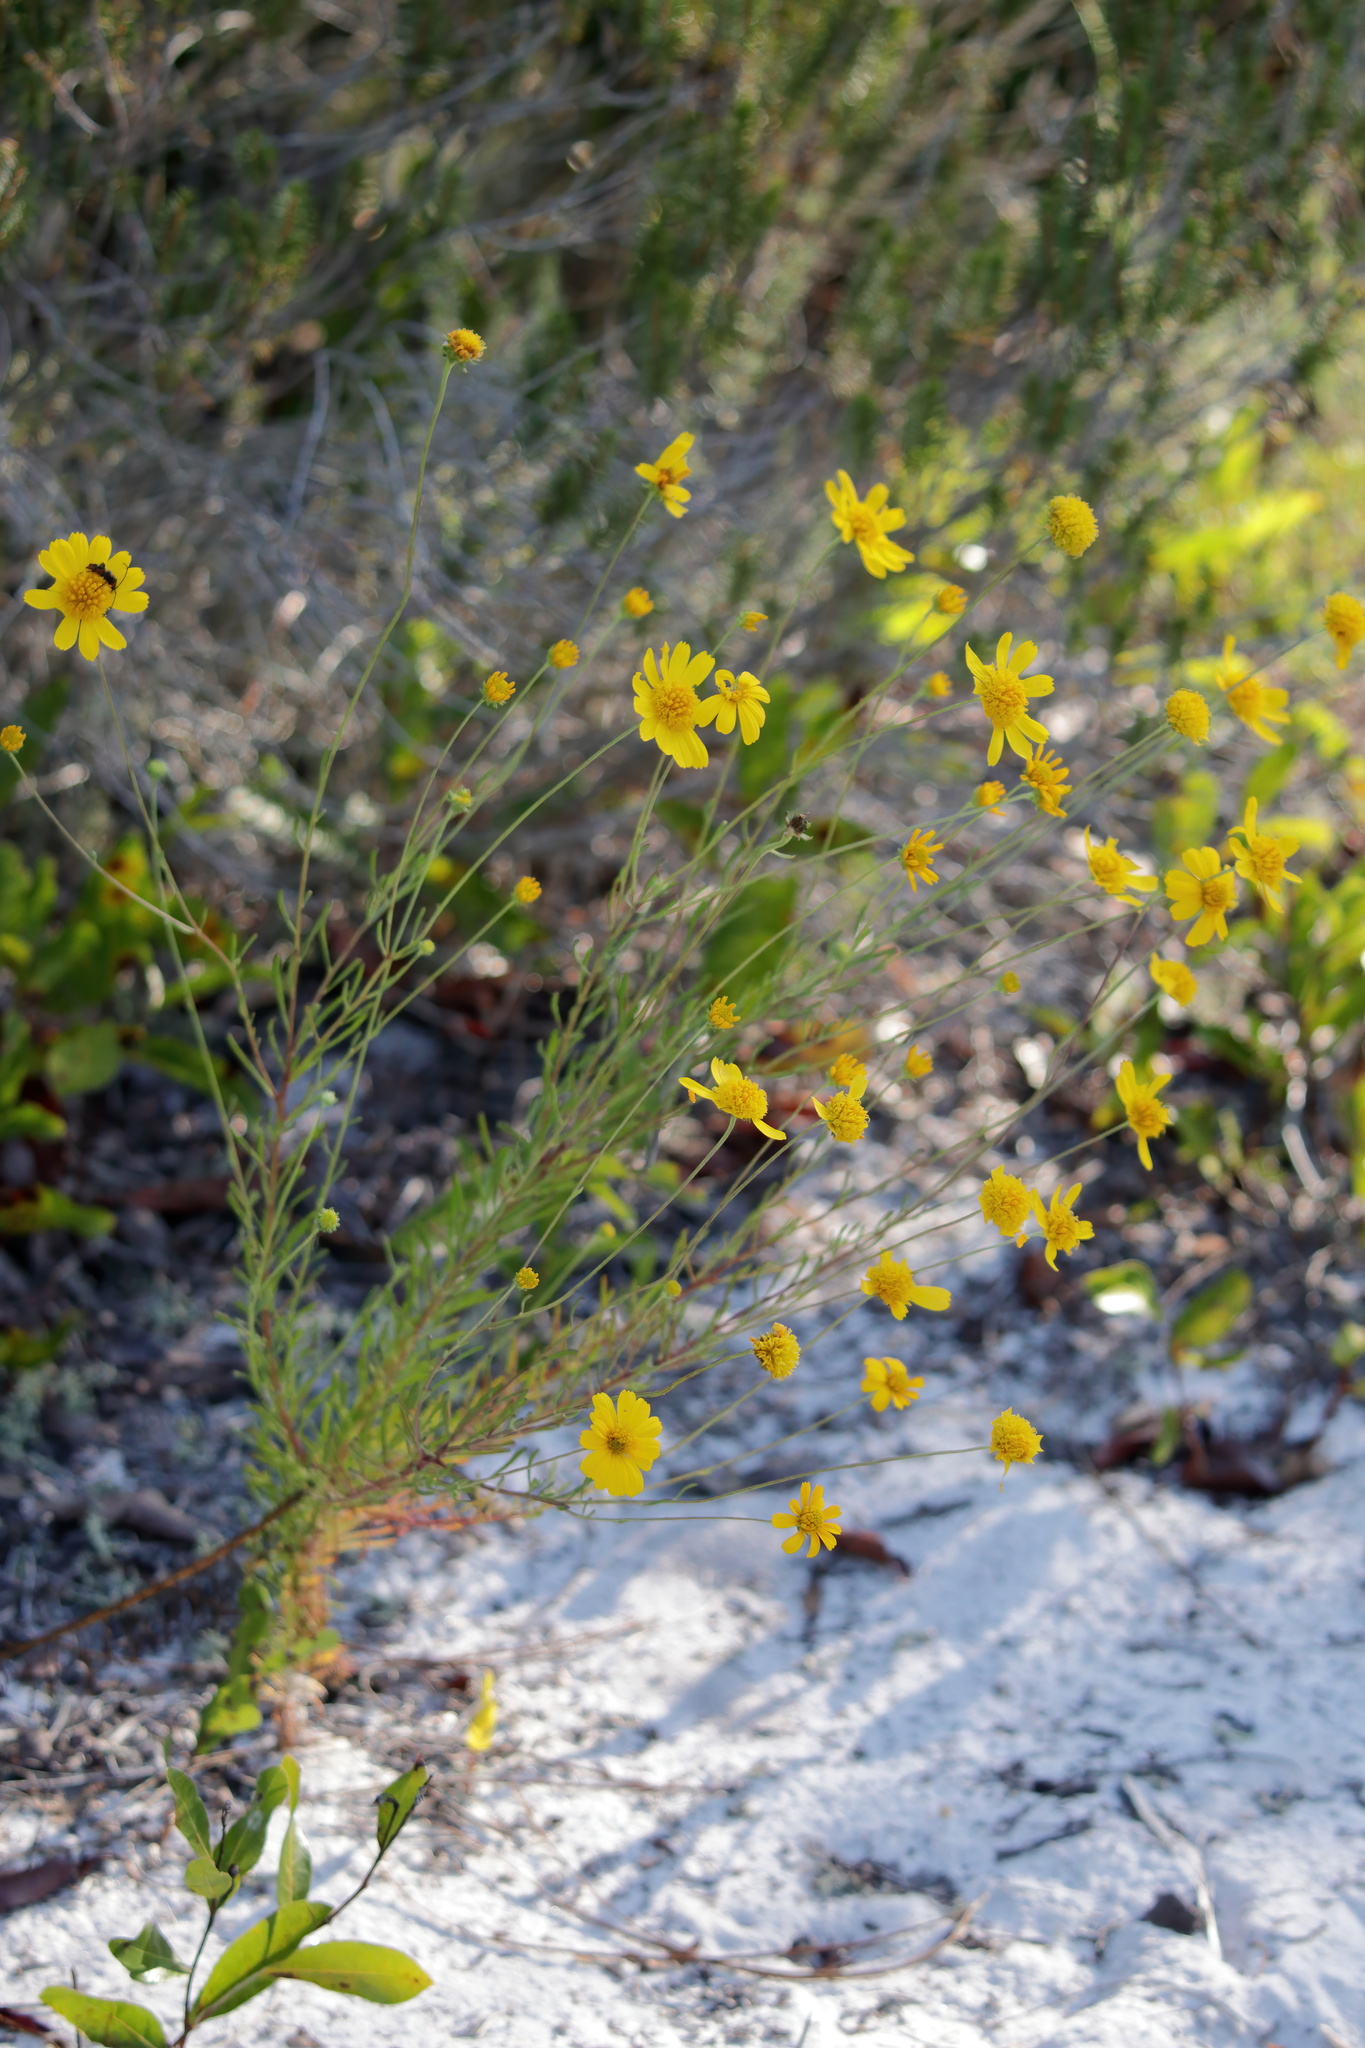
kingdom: Plantae
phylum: Tracheophyta
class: Magnoliopsida
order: Asterales
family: Asteraceae
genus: Balduina
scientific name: Balduina angustifolia
